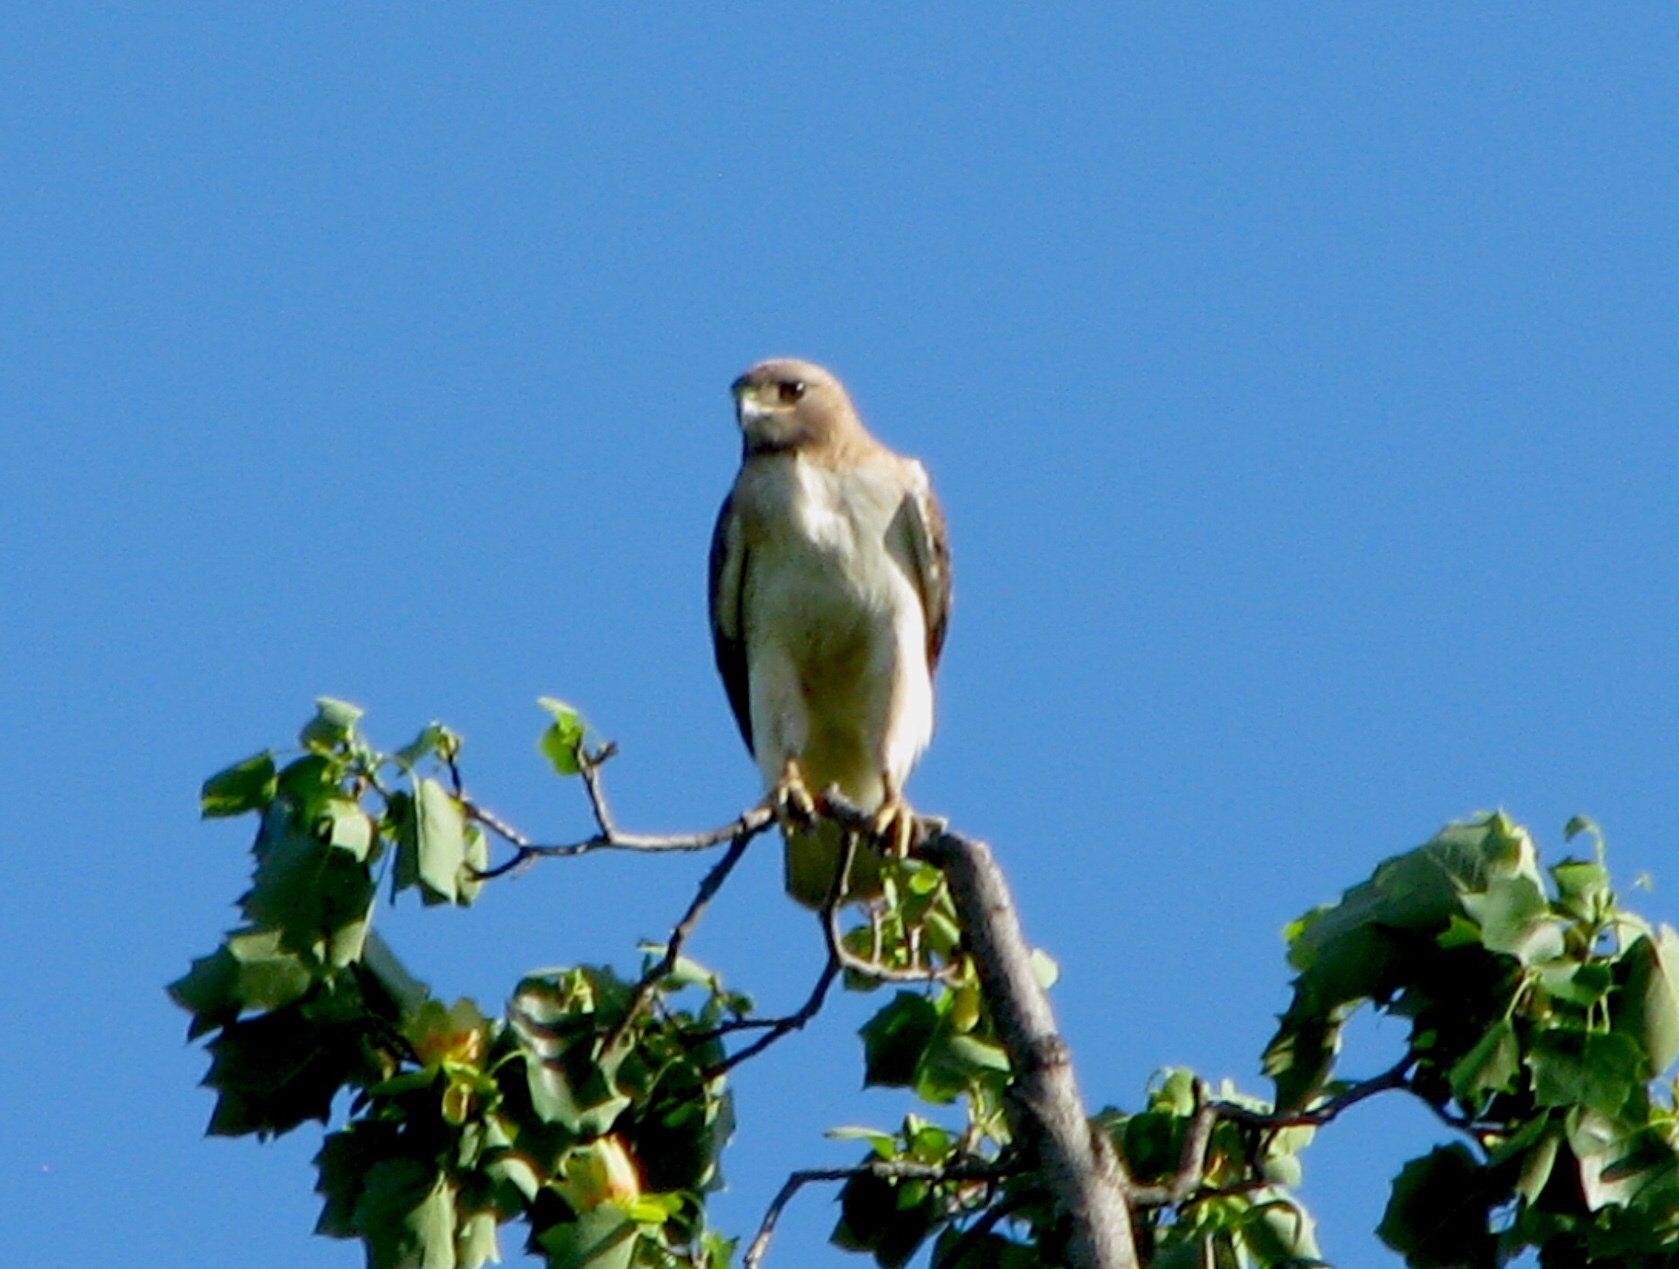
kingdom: Animalia
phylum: Chordata
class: Aves
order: Accipitriformes
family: Accipitridae
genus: Buteo
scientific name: Buteo jamaicensis
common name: Red-tailed hawk
